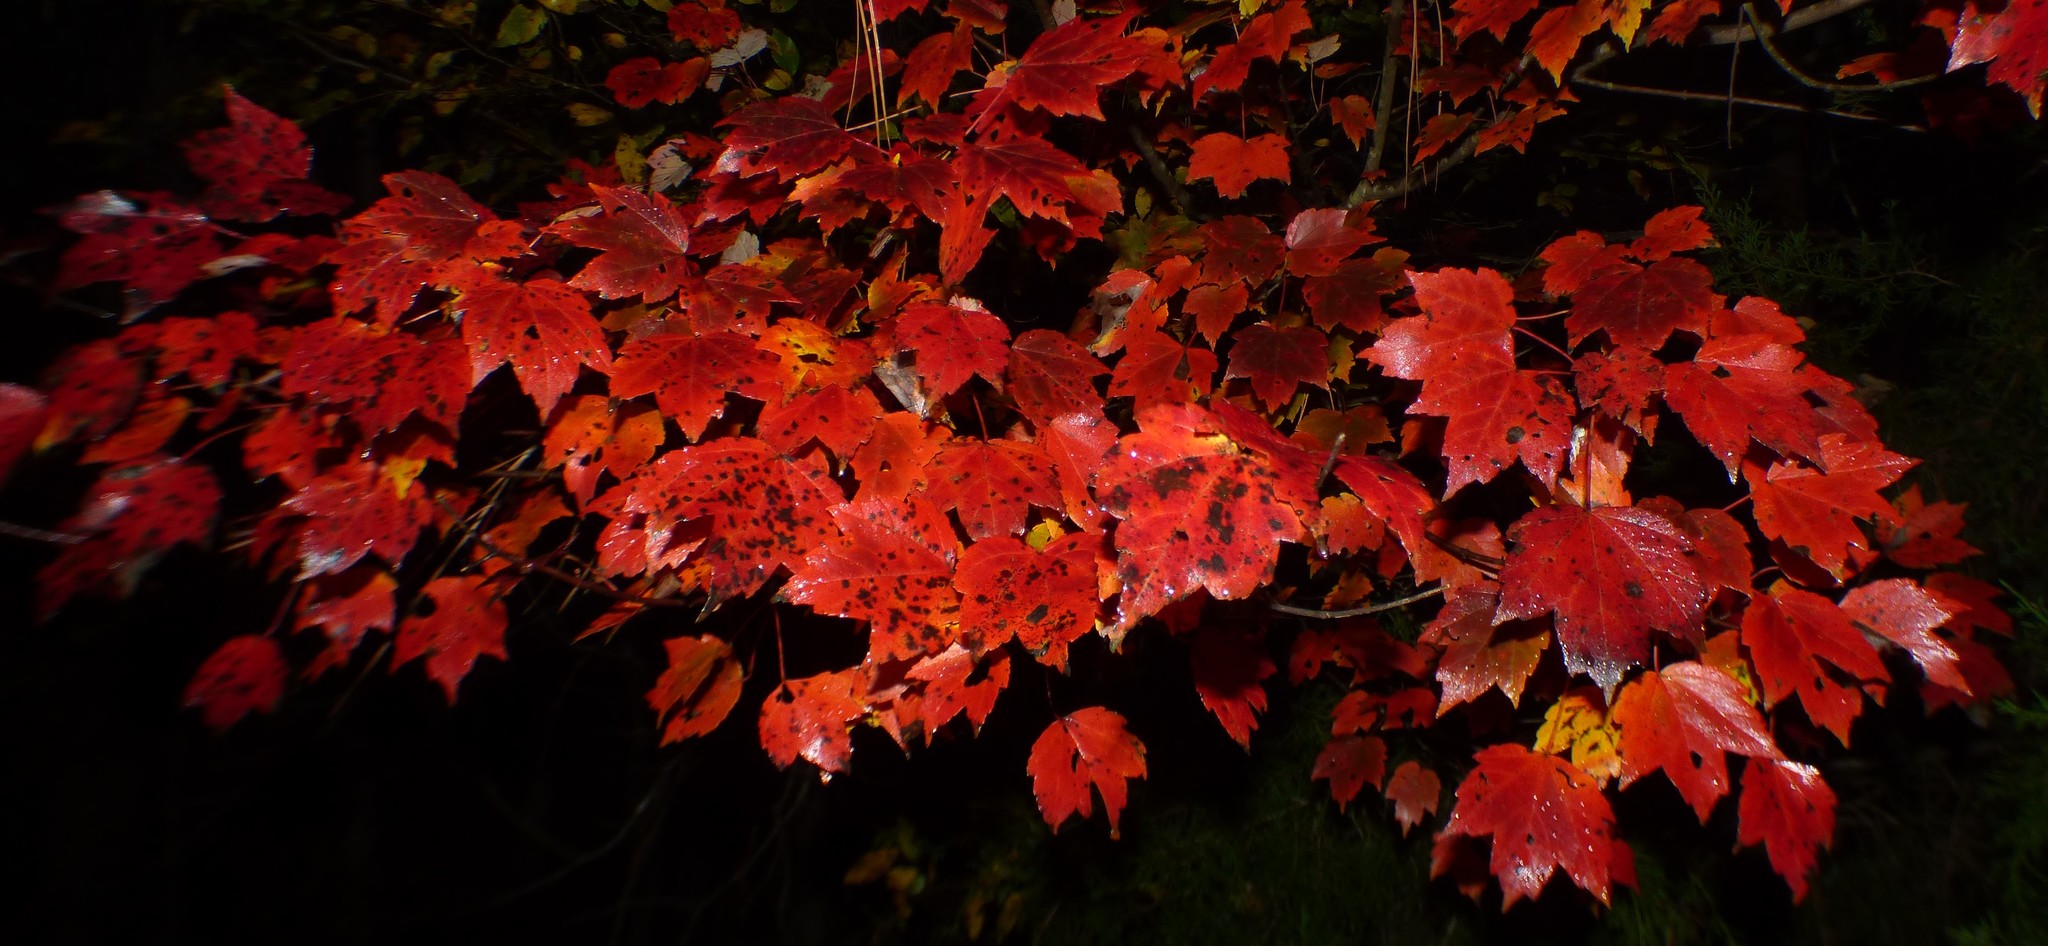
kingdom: Plantae
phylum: Tracheophyta
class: Magnoliopsida
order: Sapindales
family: Sapindaceae
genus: Acer
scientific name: Acer rubrum
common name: Red maple
